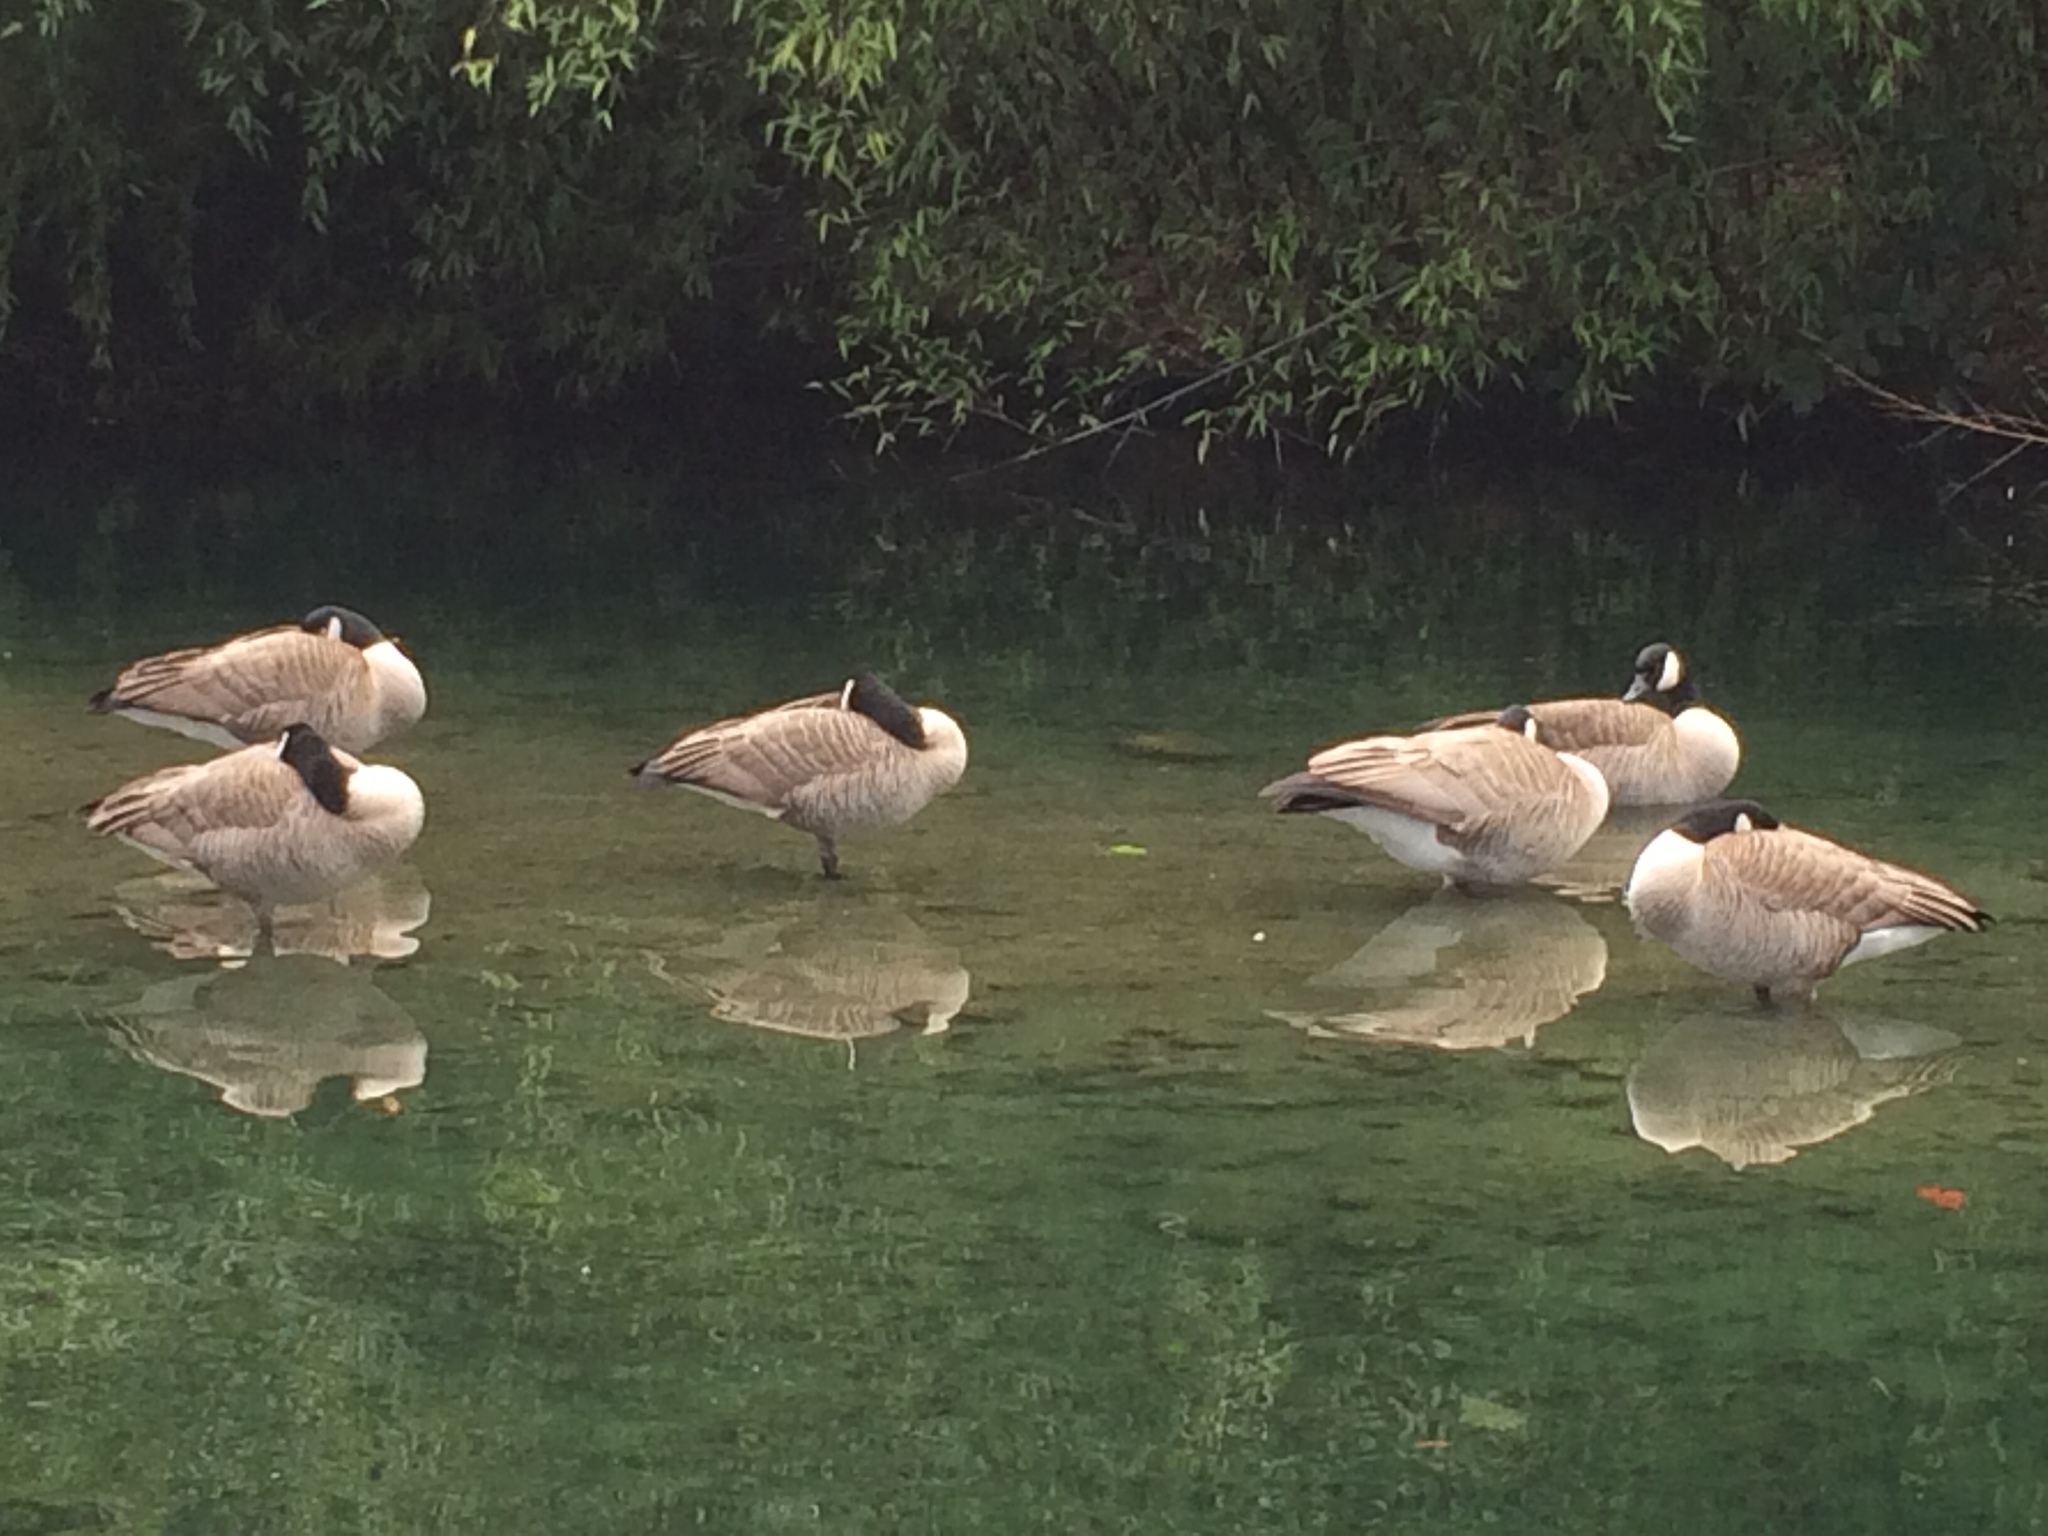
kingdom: Animalia
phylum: Chordata
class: Aves
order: Anseriformes
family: Anatidae
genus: Branta
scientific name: Branta canadensis
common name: Canada goose
